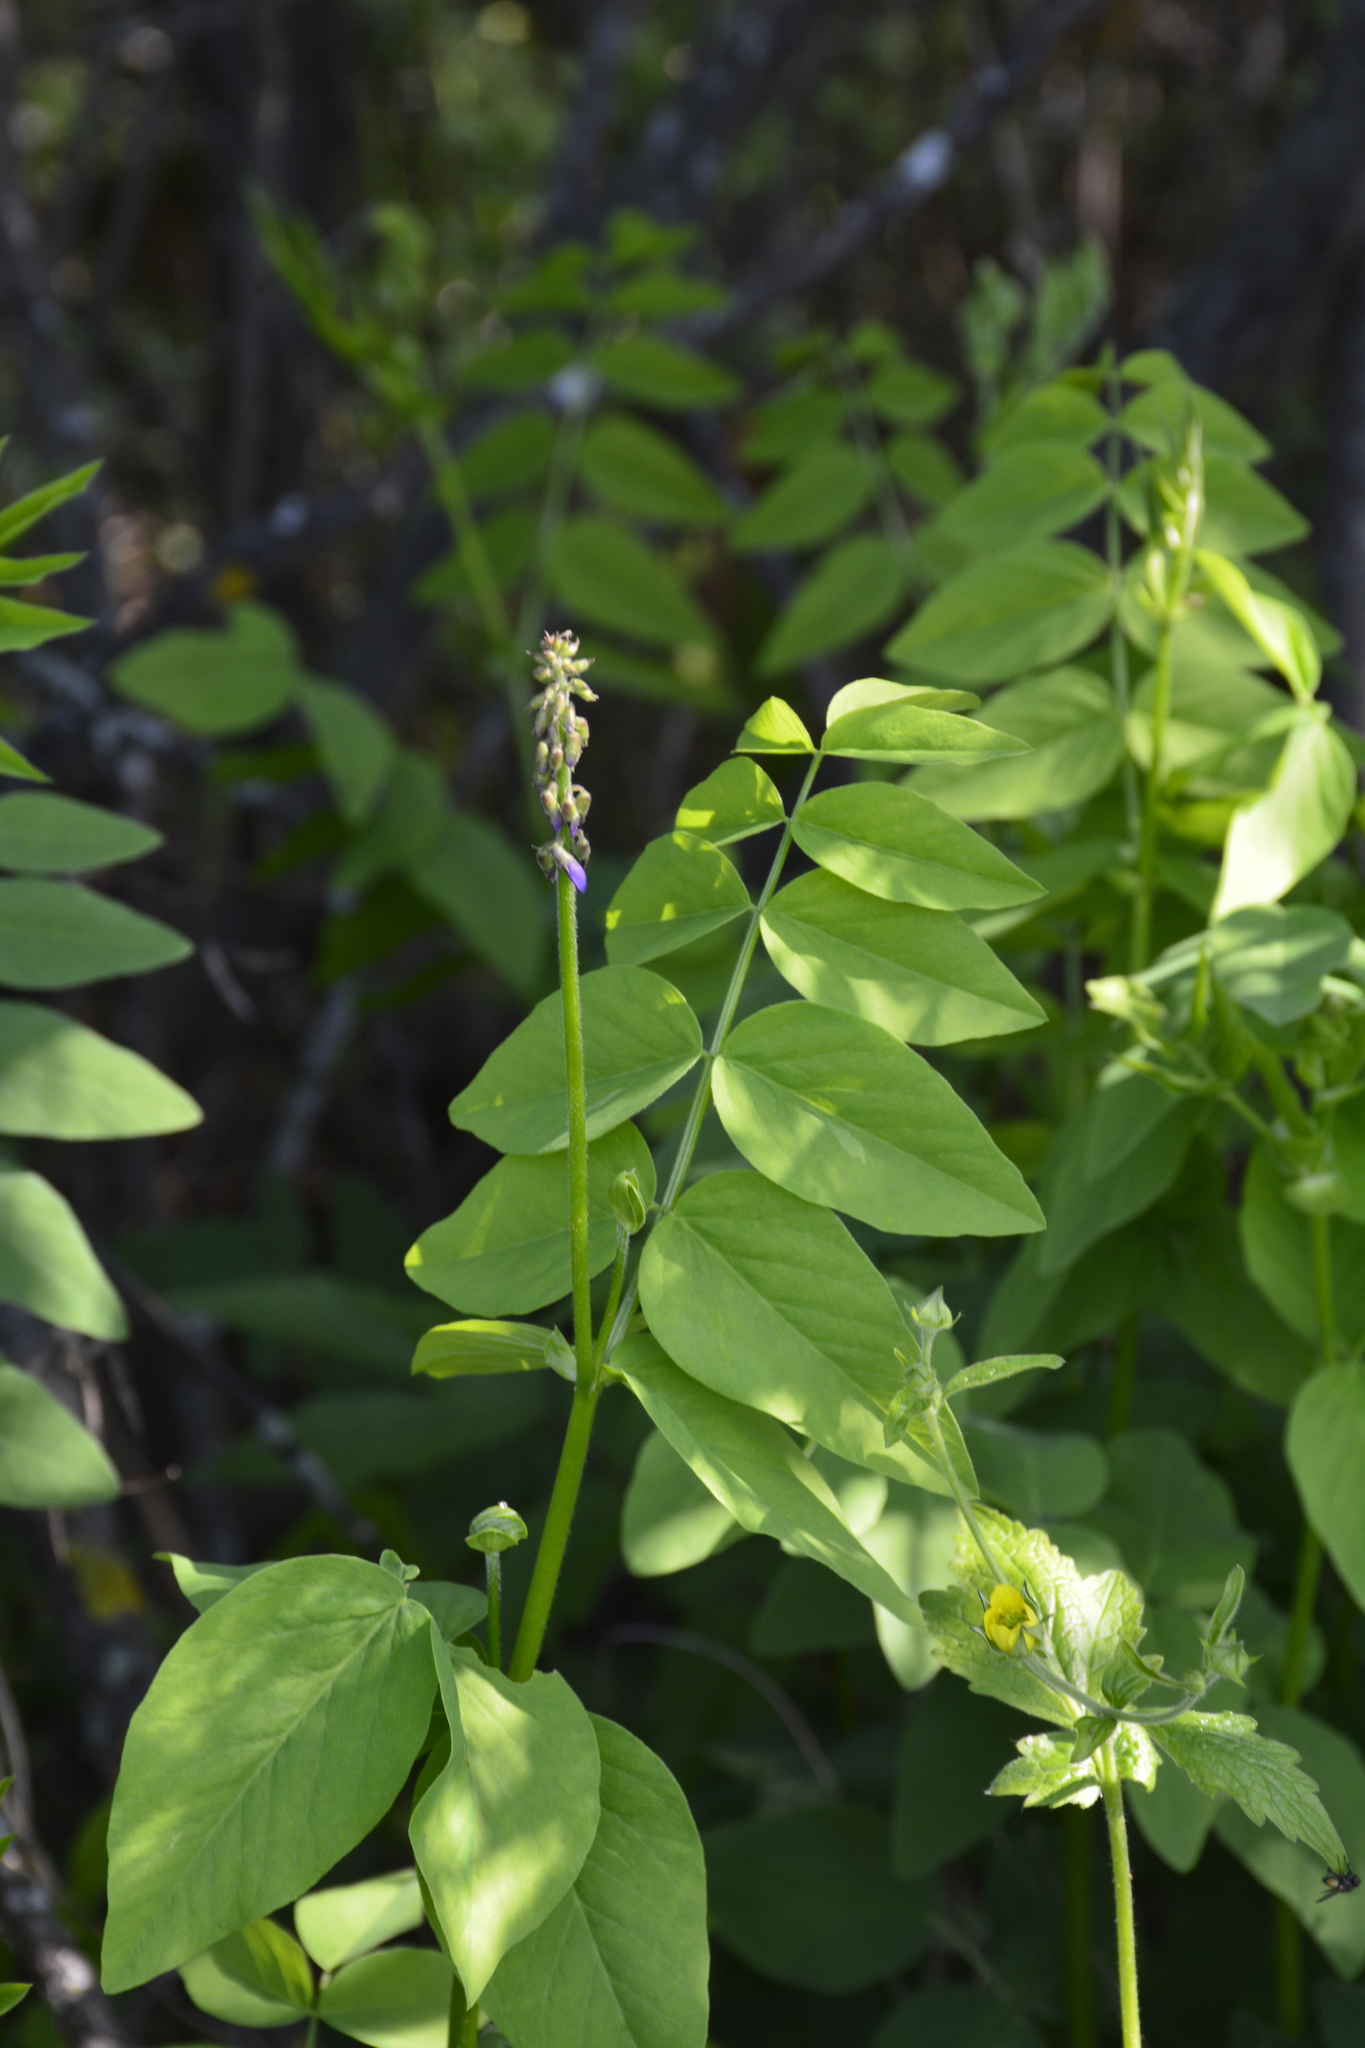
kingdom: Plantae
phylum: Tracheophyta
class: Magnoliopsida
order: Fabales
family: Fabaceae
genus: Galega
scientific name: Galega orientalis
